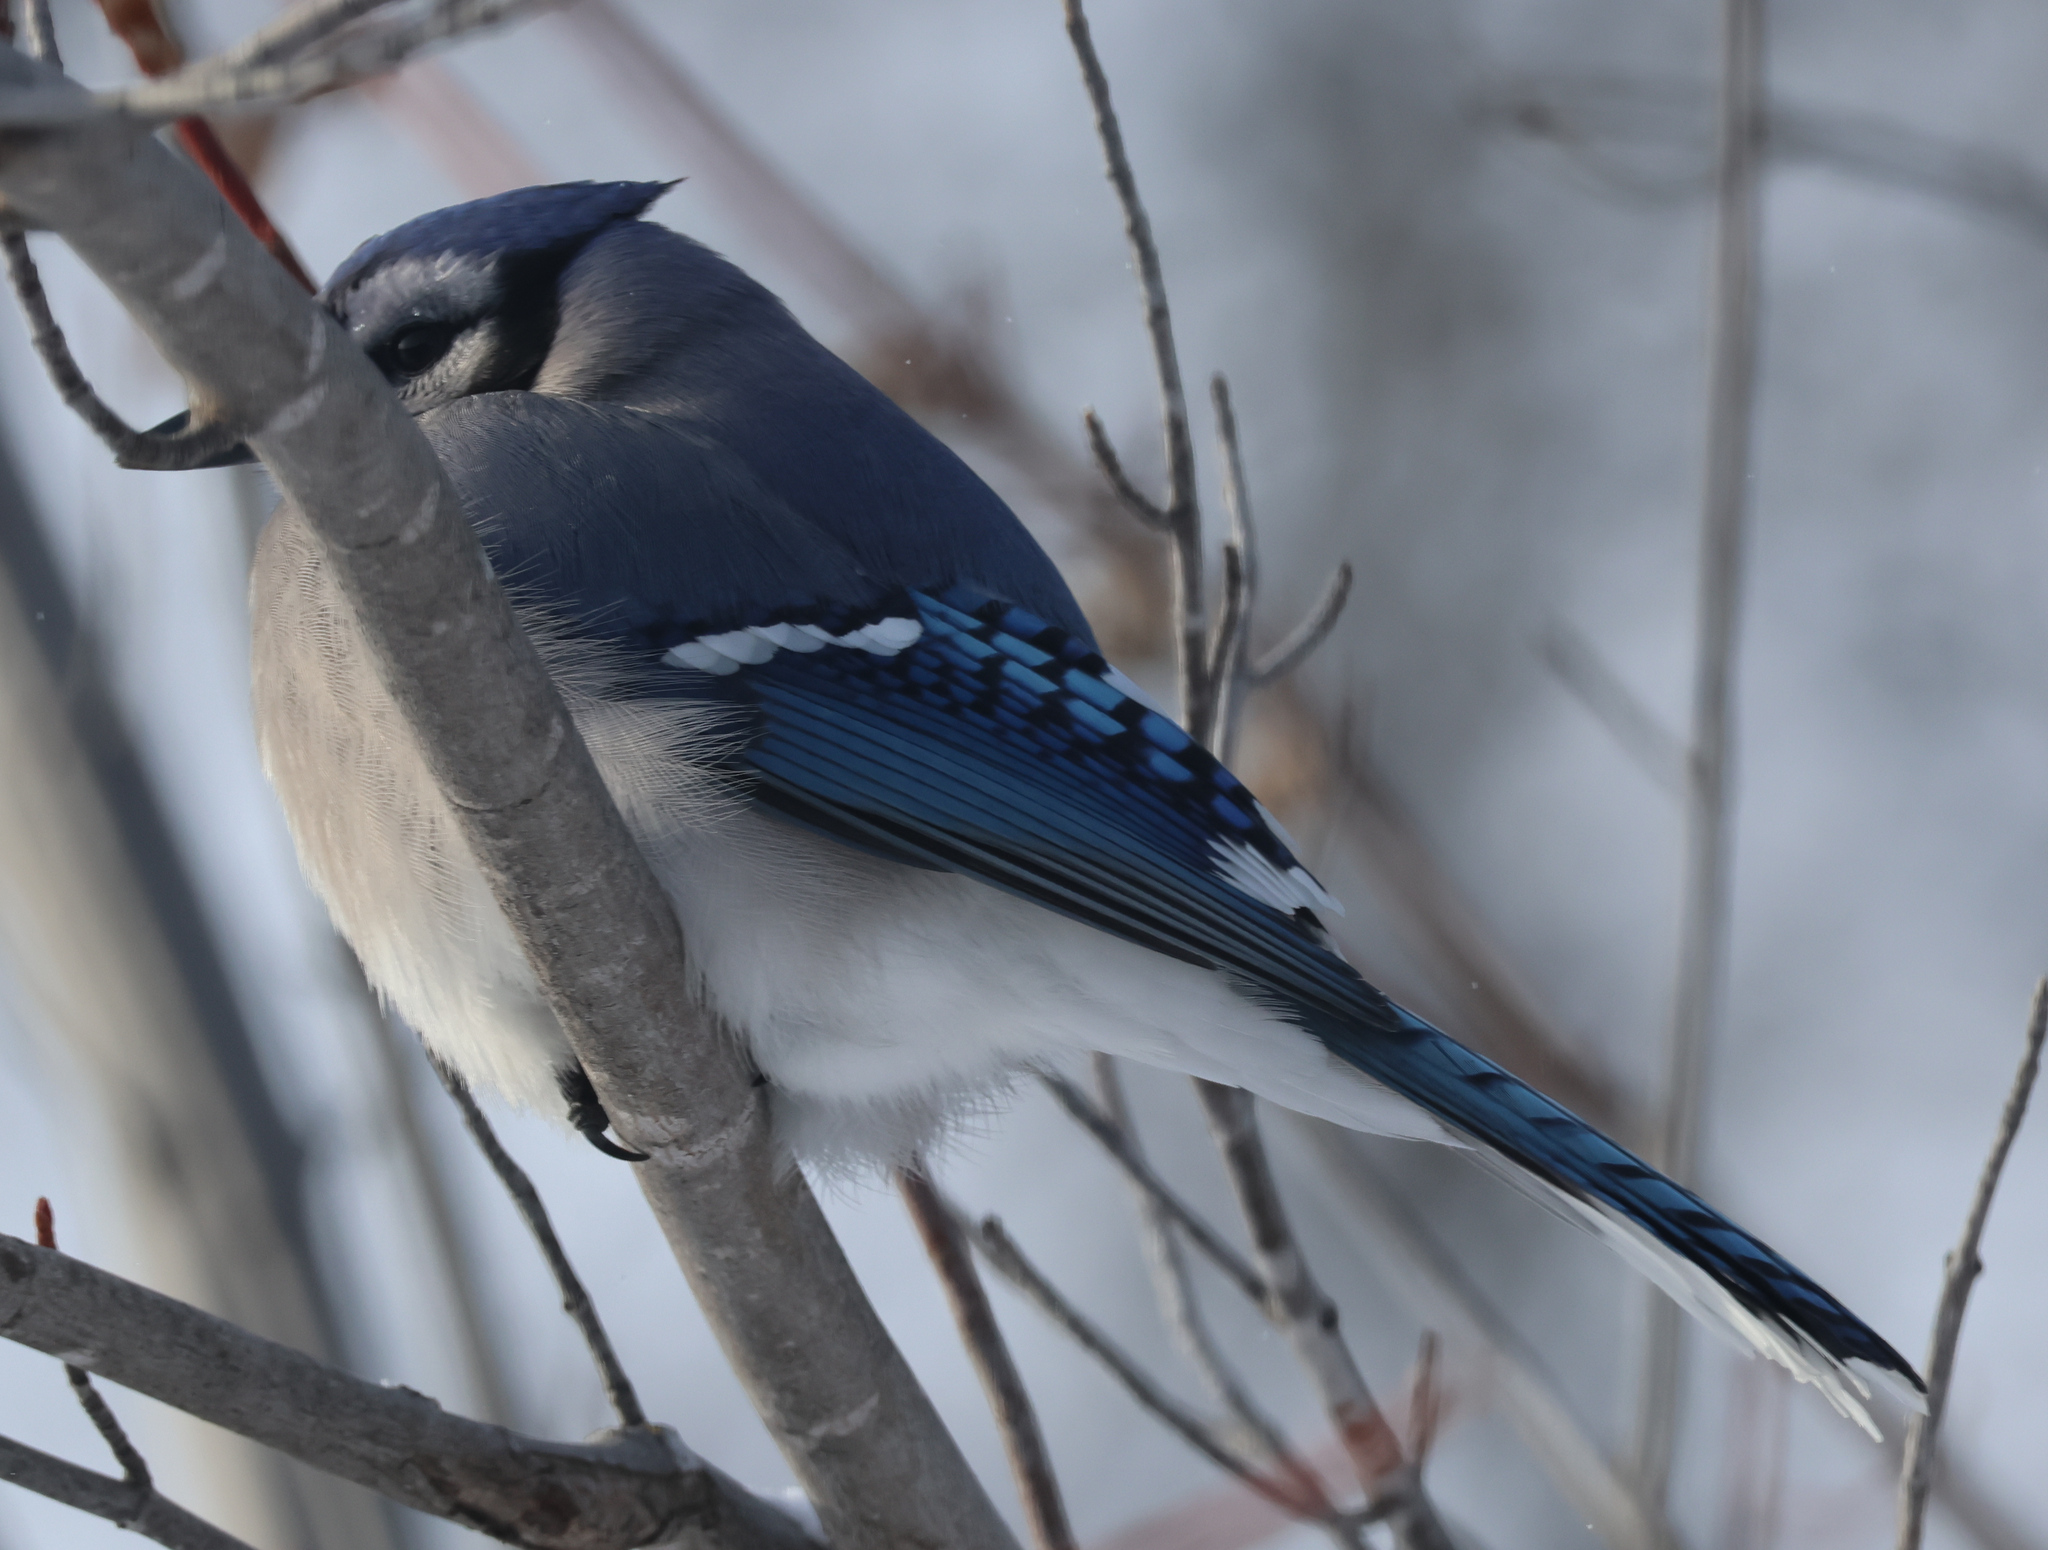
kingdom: Animalia
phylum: Chordata
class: Aves
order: Passeriformes
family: Corvidae
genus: Cyanocitta
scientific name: Cyanocitta cristata
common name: Blue jay
